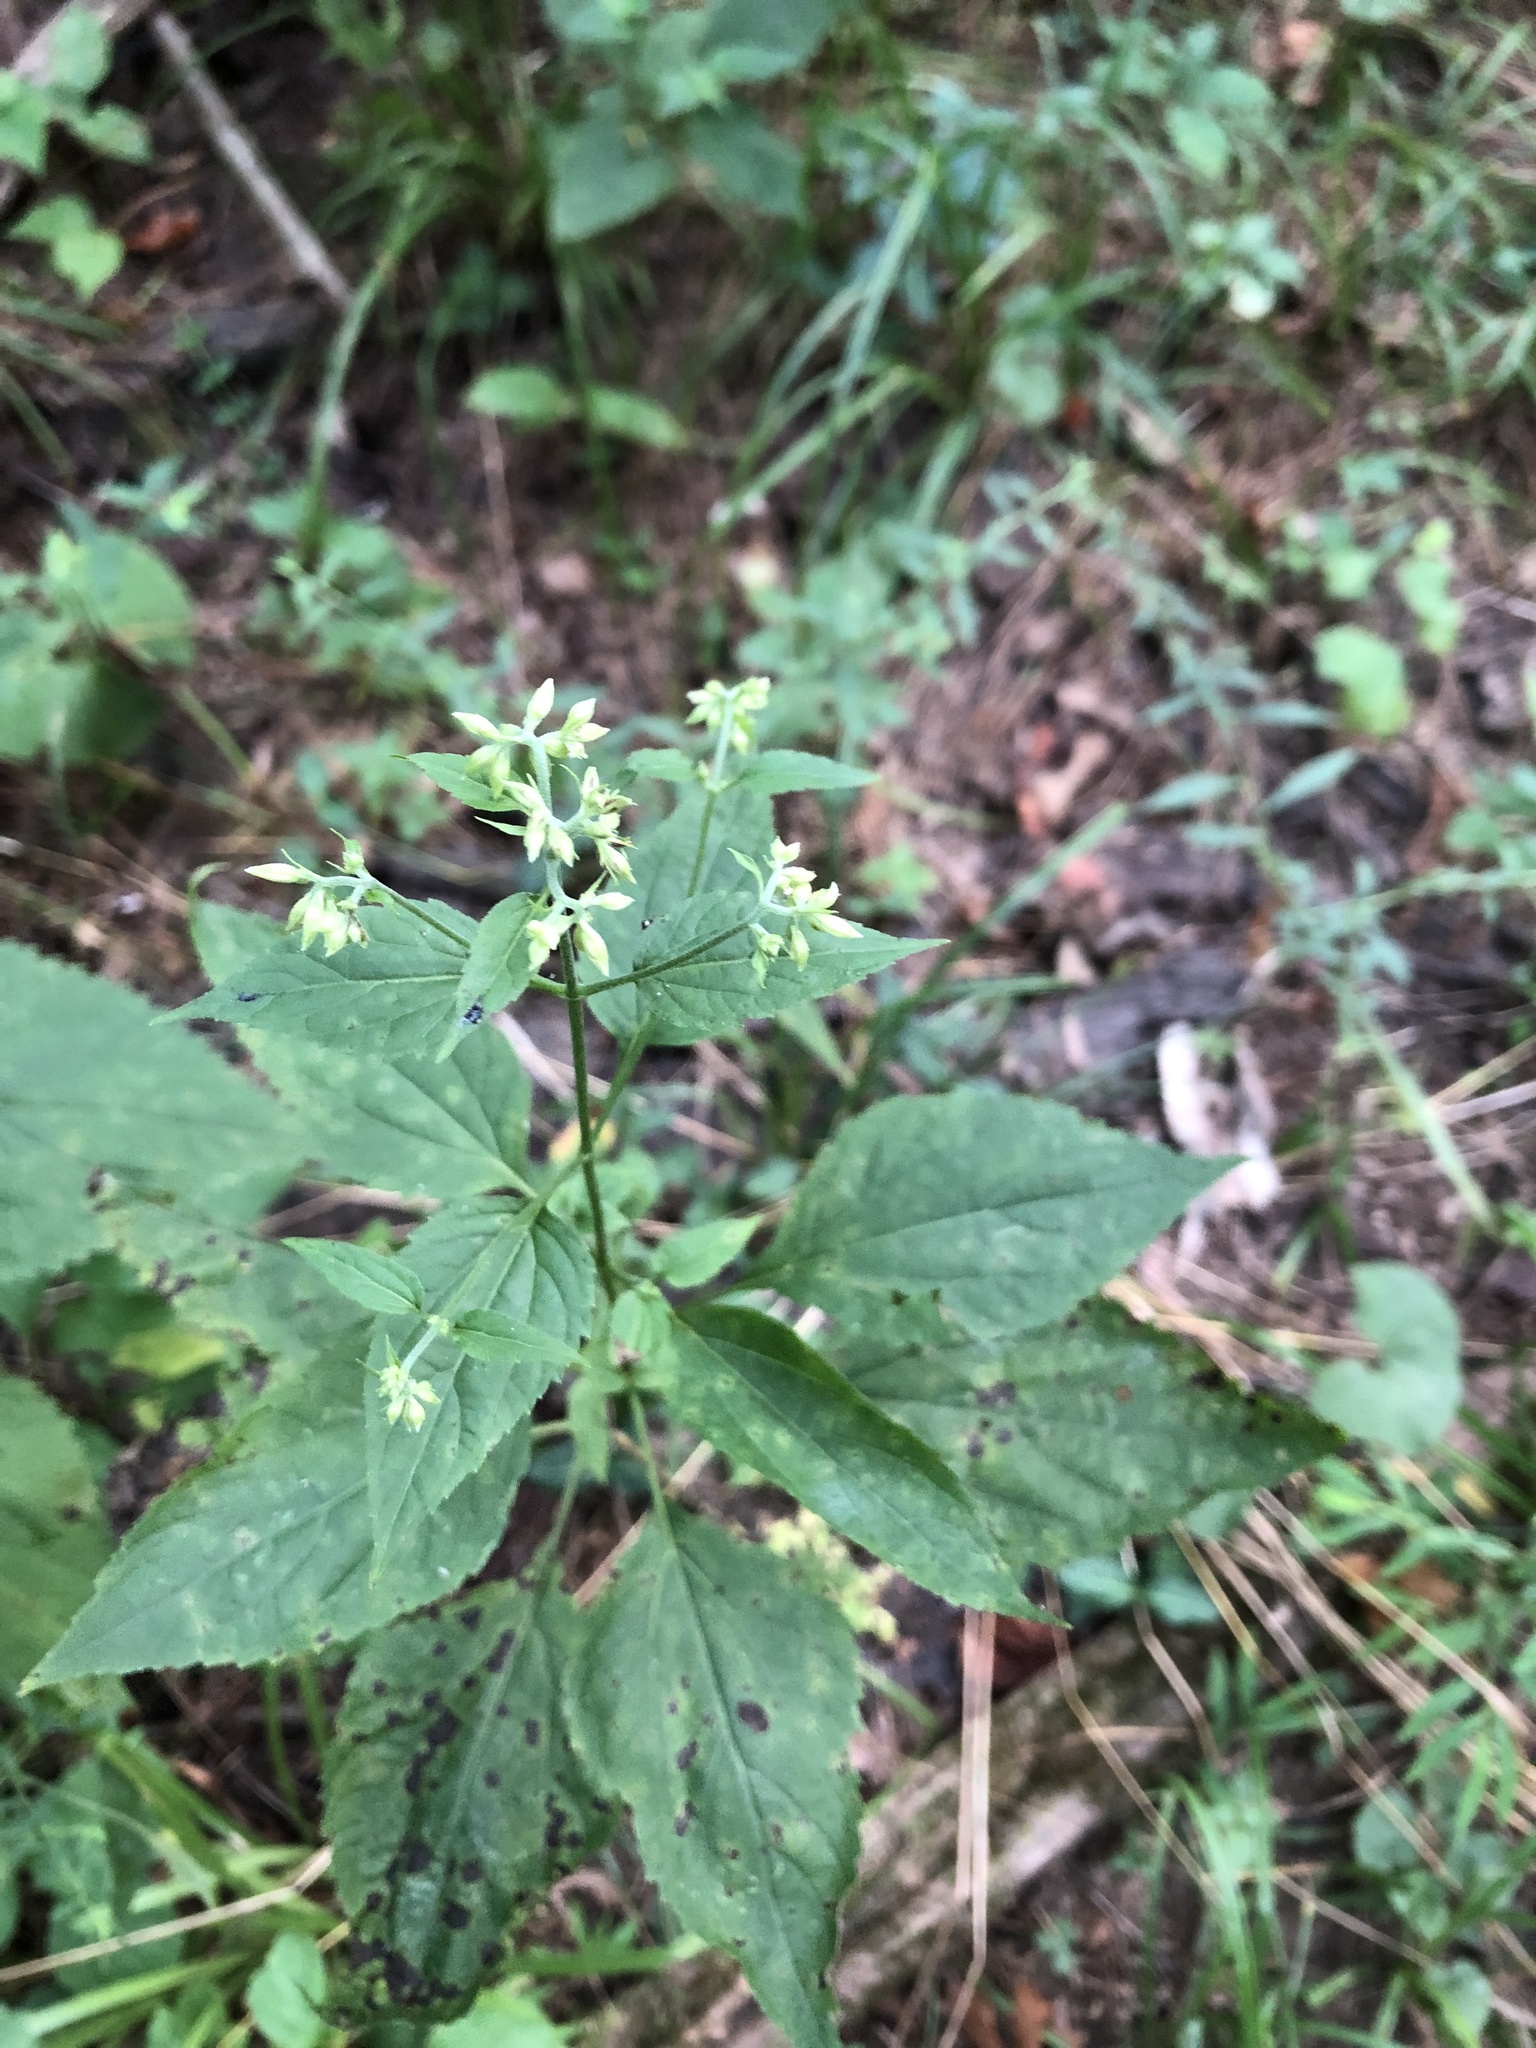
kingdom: Plantae
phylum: Tracheophyta
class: Magnoliopsida
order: Asterales
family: Asteraceae
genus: Ageratina
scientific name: Ageratina altissima
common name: White snakeroot
